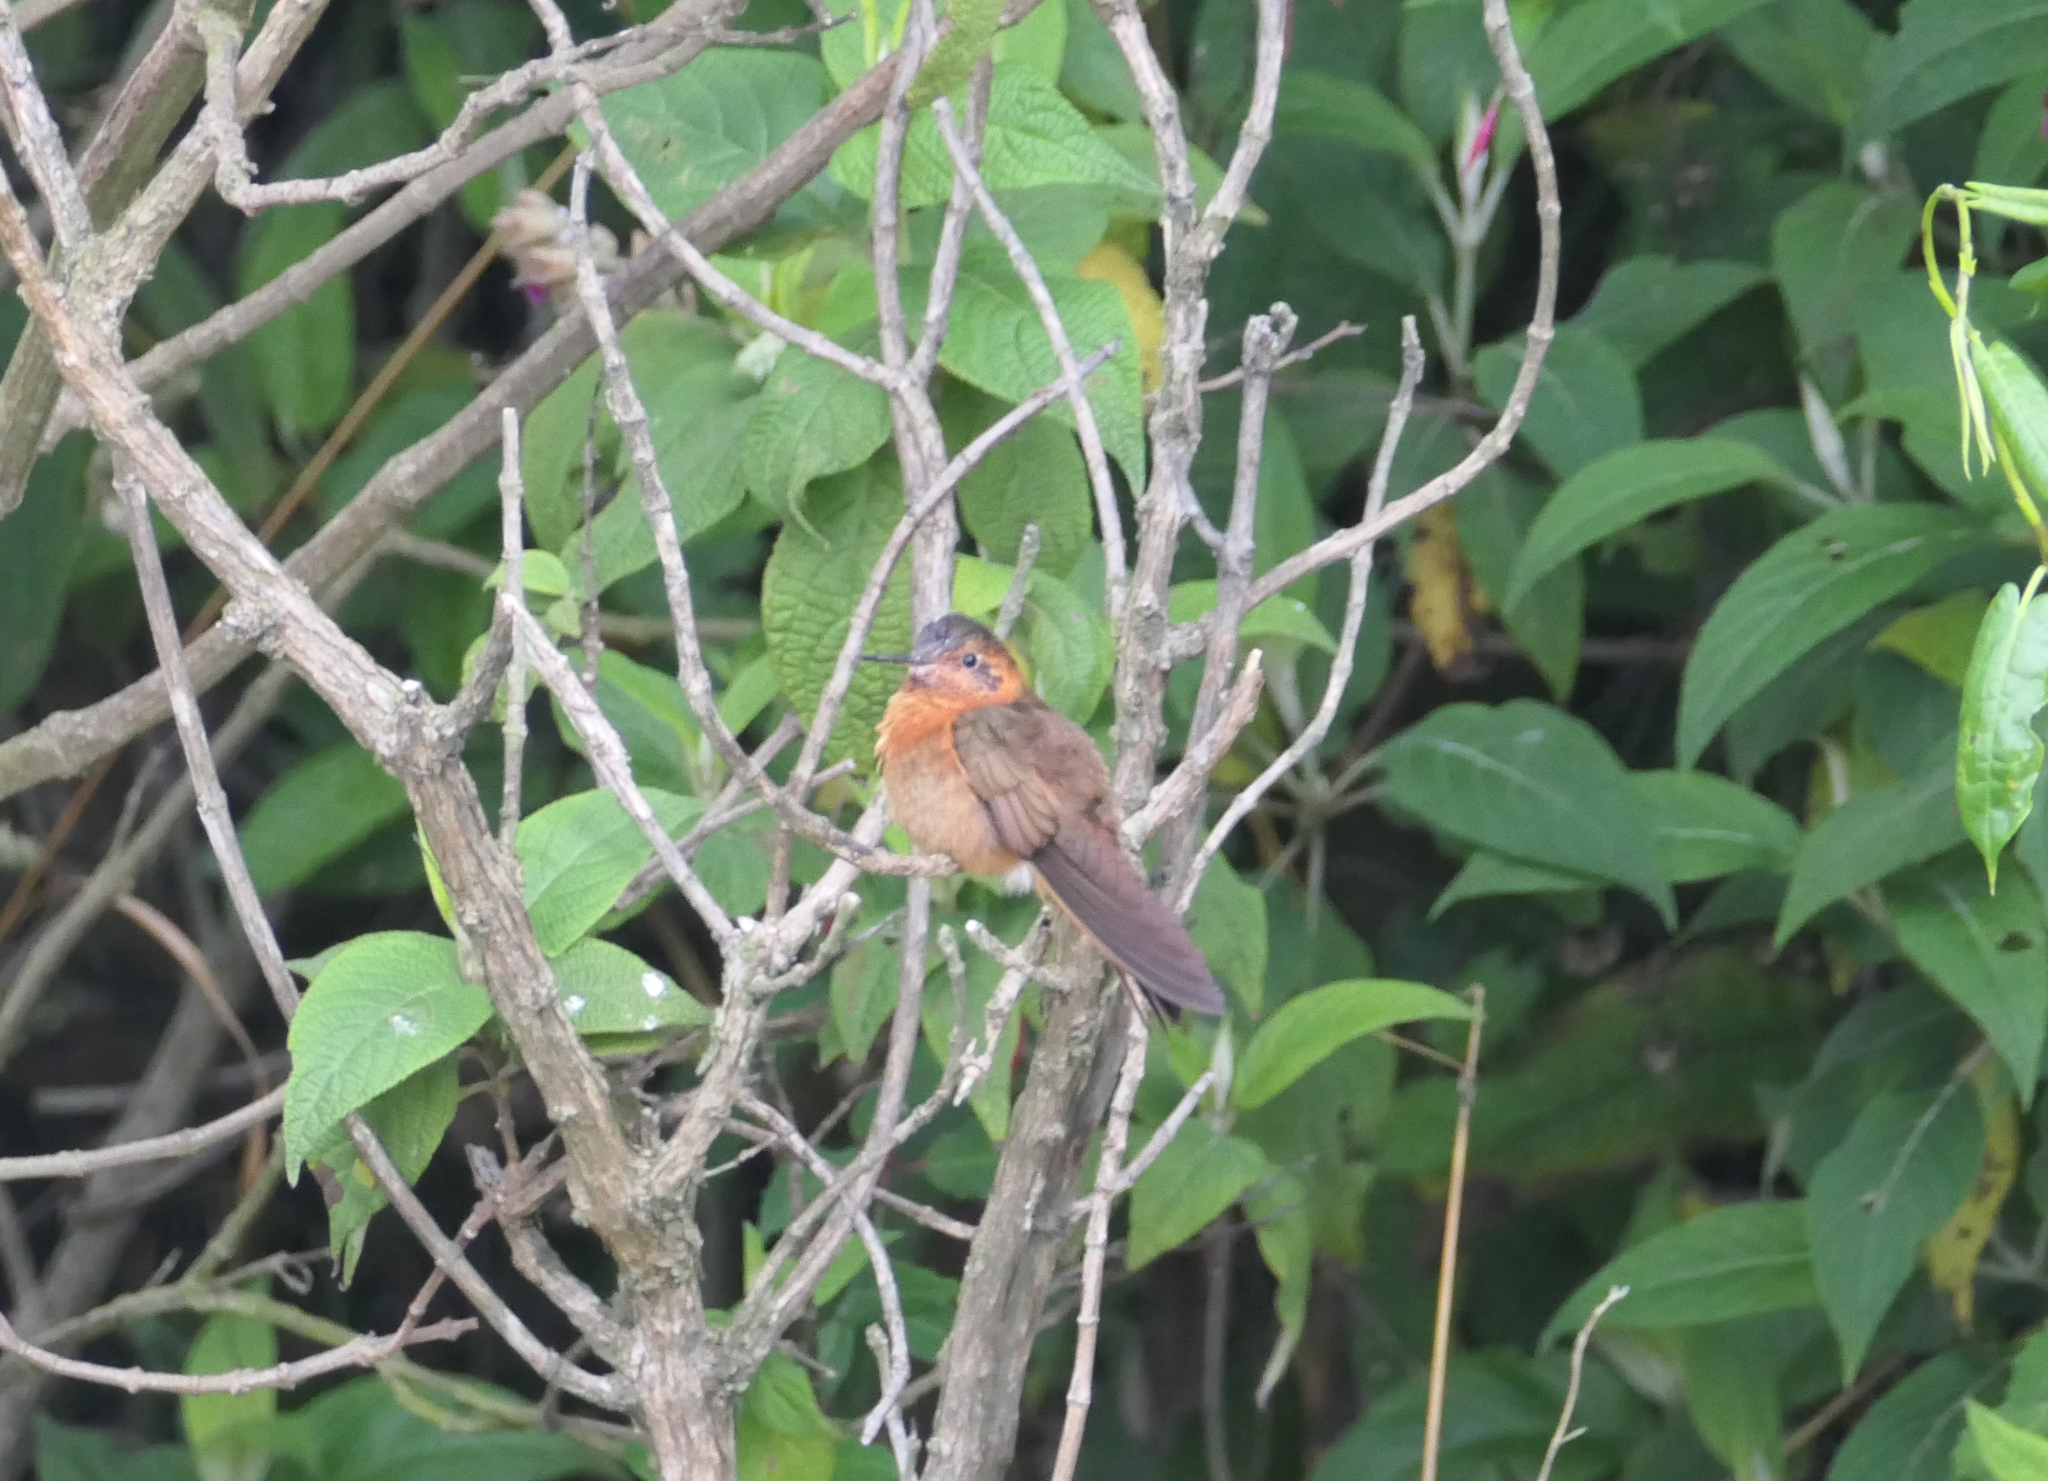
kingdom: Animalia
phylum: Chordata
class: Aves
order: Apodiformes
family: Trochilidae
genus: Aglaeactis
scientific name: Aglaeactis cupripennis
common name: Shining sunbeam
